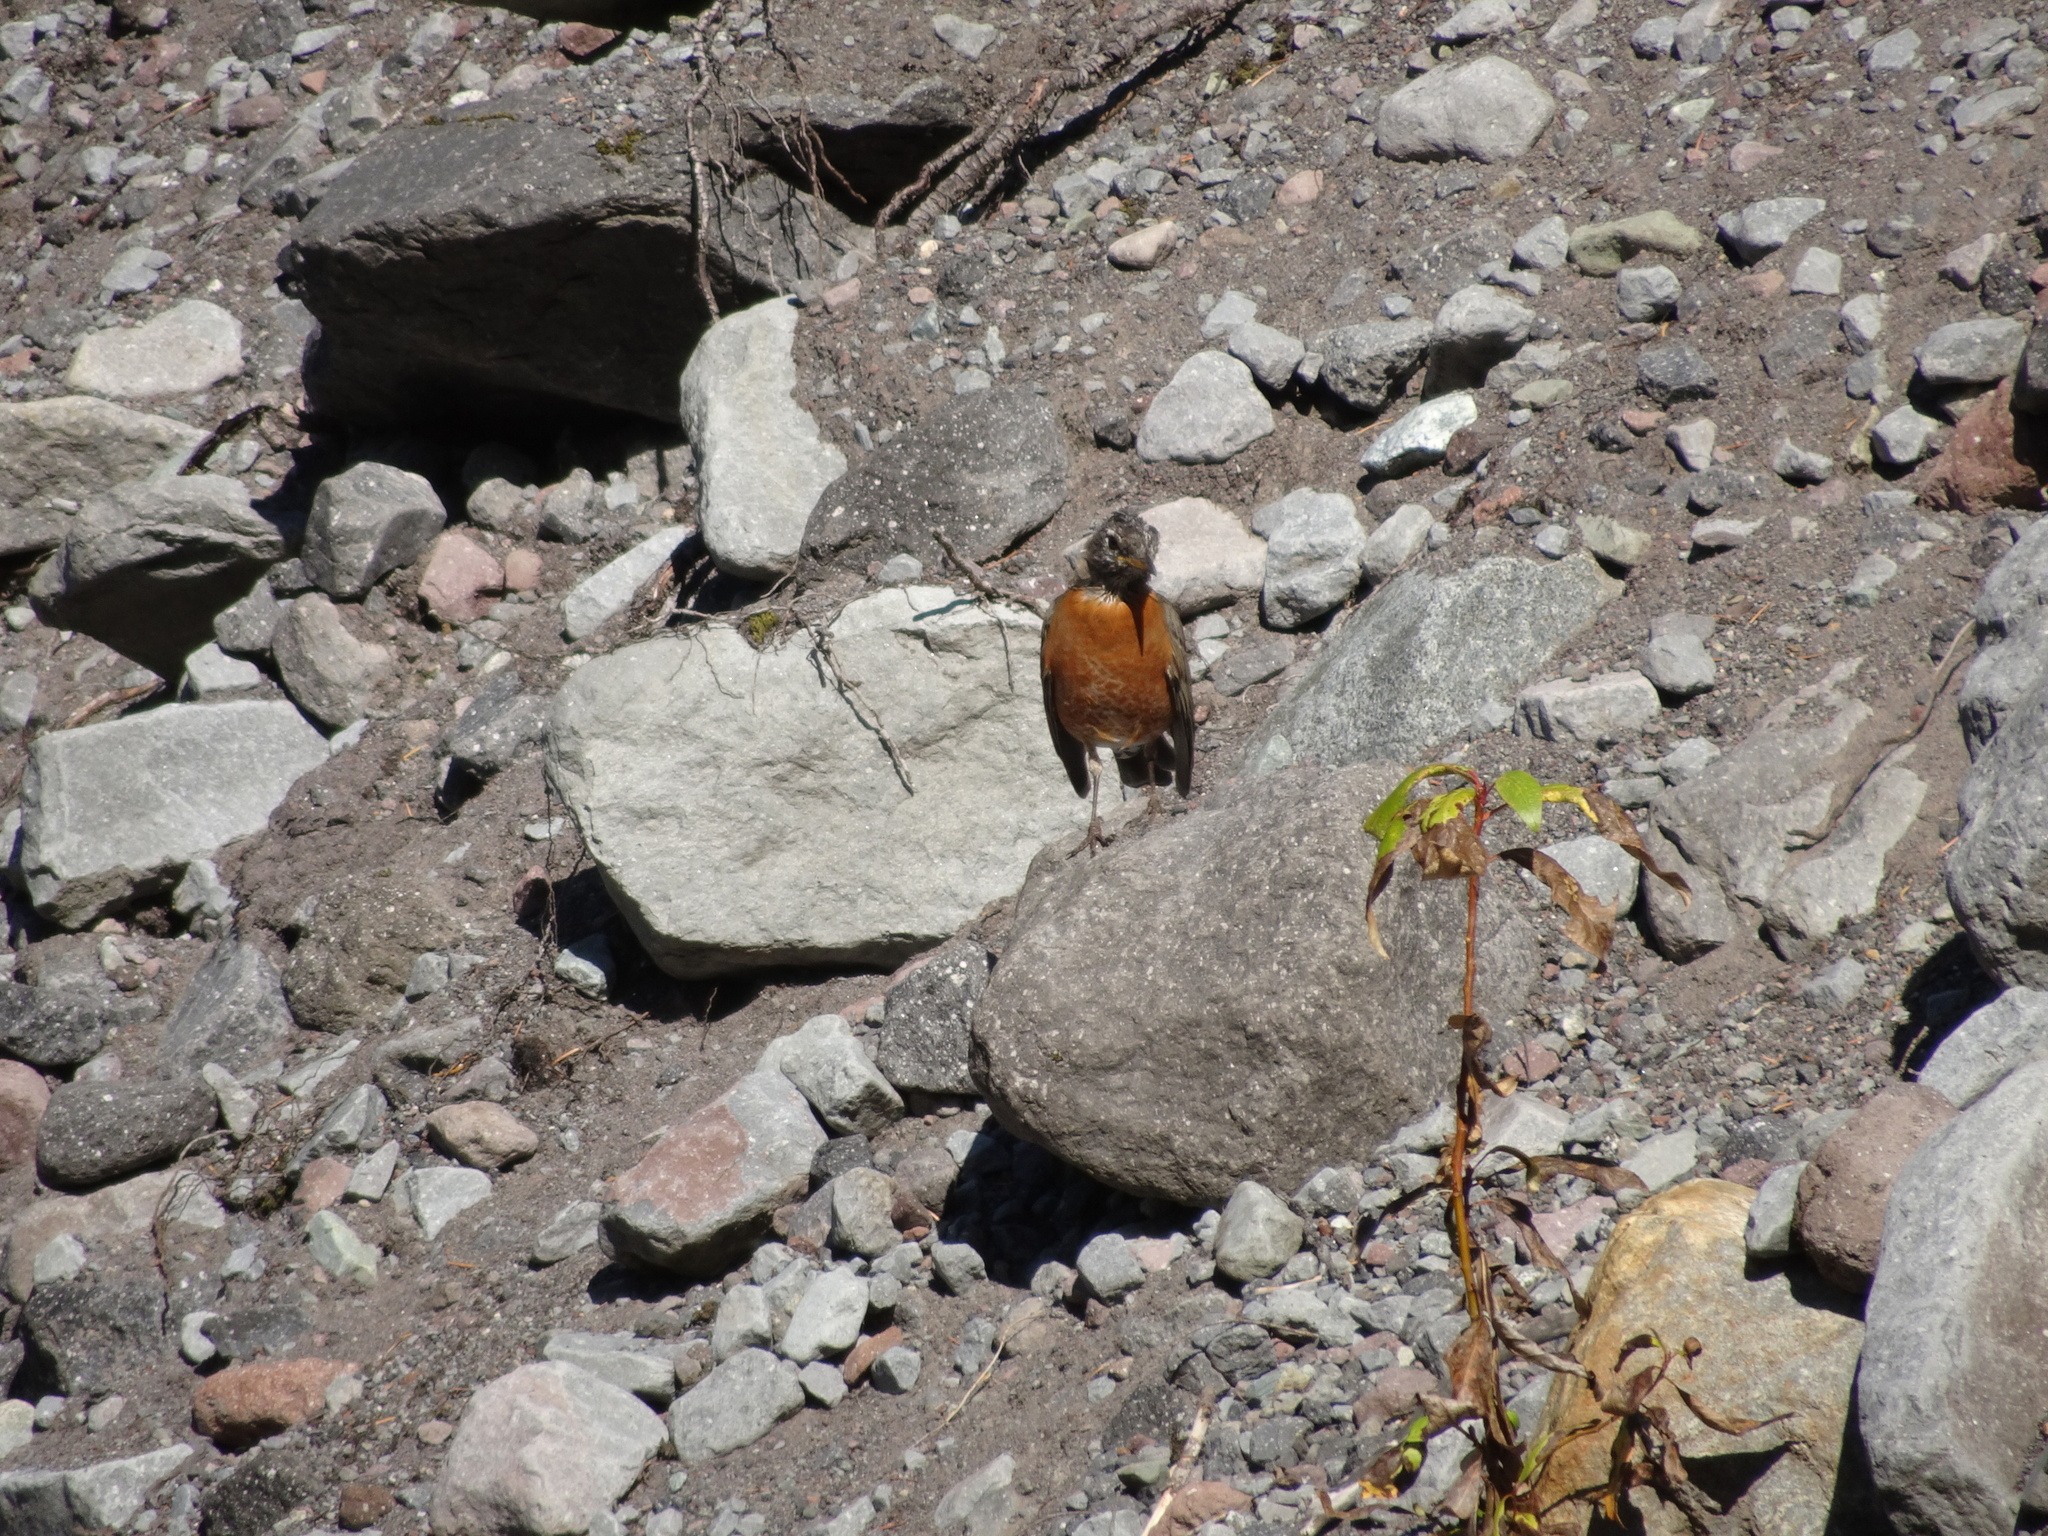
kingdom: Animalia
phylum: Chordata
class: Aves
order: Passeriformes
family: Turdidae
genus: Turdus
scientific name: Turdus migratorius
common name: American robin
